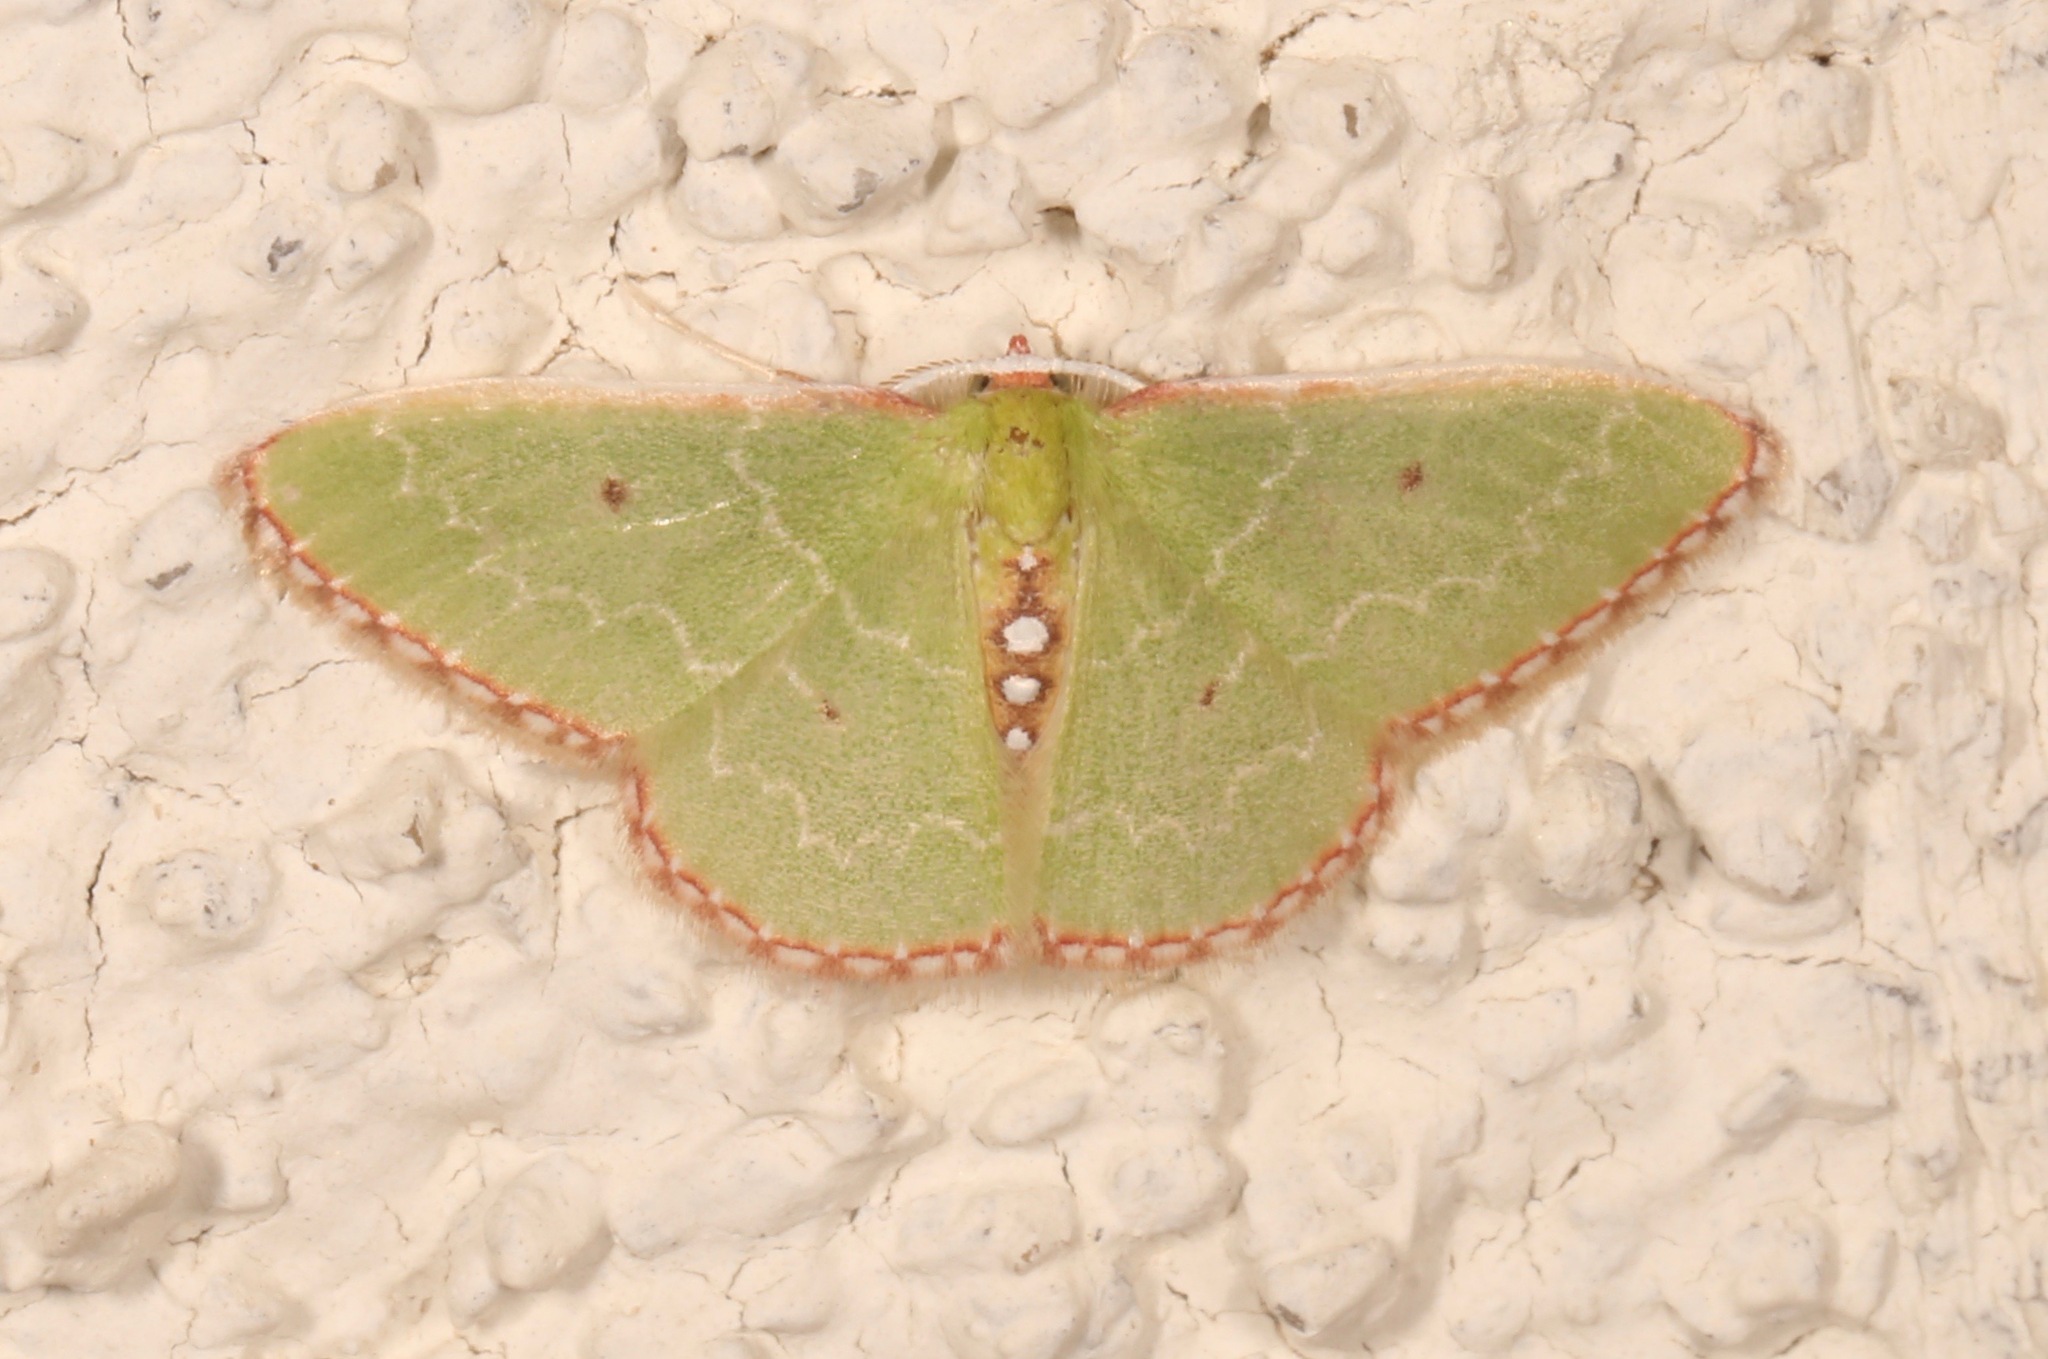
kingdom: Animalia
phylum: Arthropoda
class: Insecta
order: Lepidoptera
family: Geometridae
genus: Synchlora
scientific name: Synchlora noel
